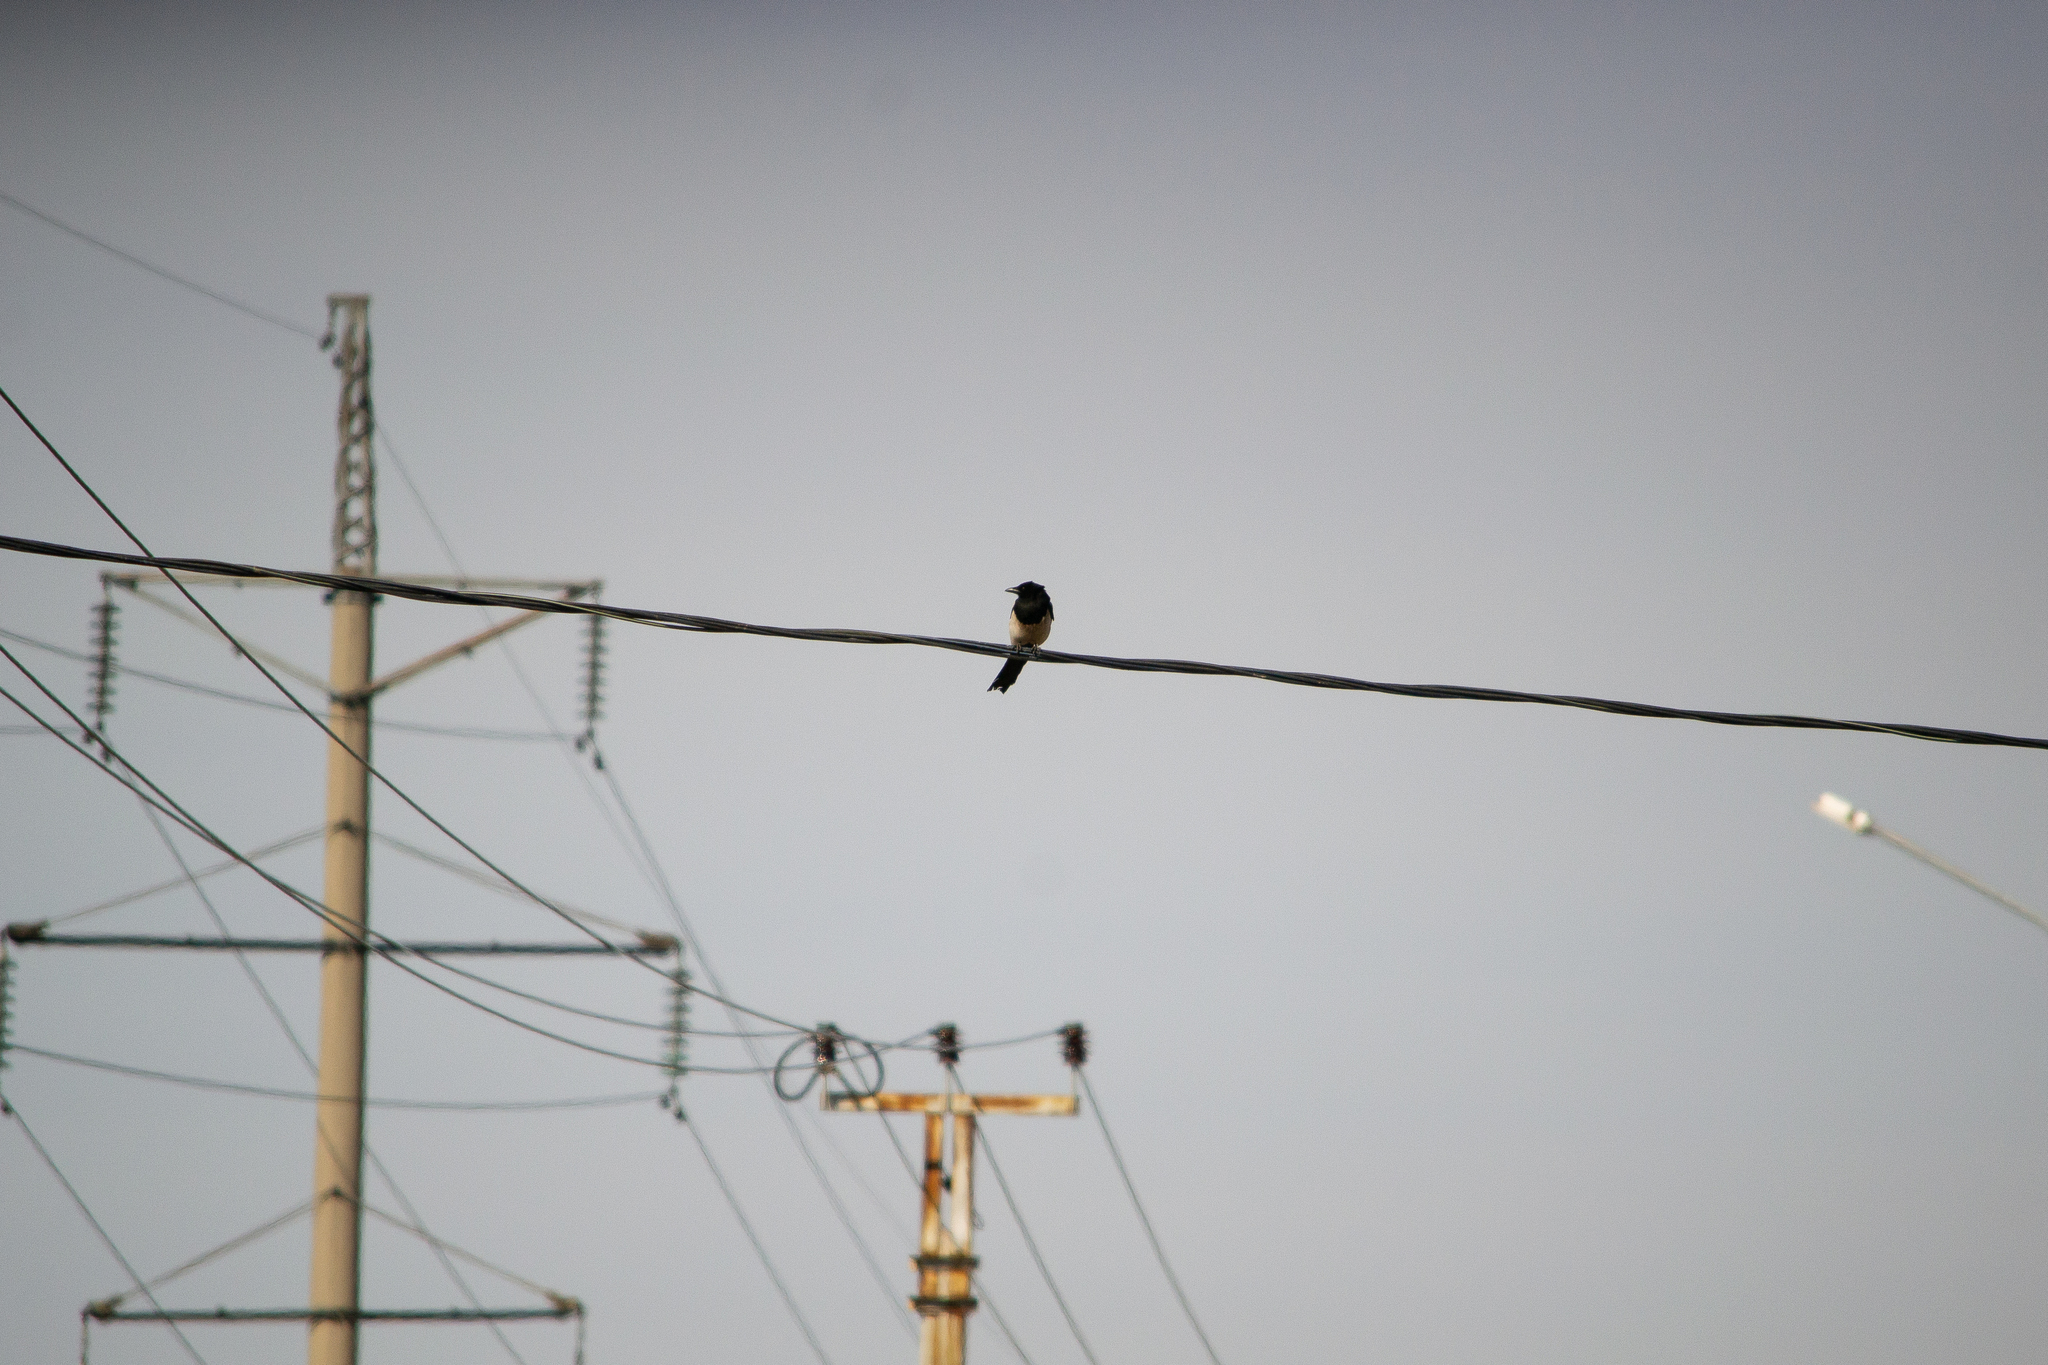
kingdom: Animalia
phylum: Chordata
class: Aves
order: Passeriformes
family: Corvidae
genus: Pica
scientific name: Pica pica
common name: Eurasian magpie
